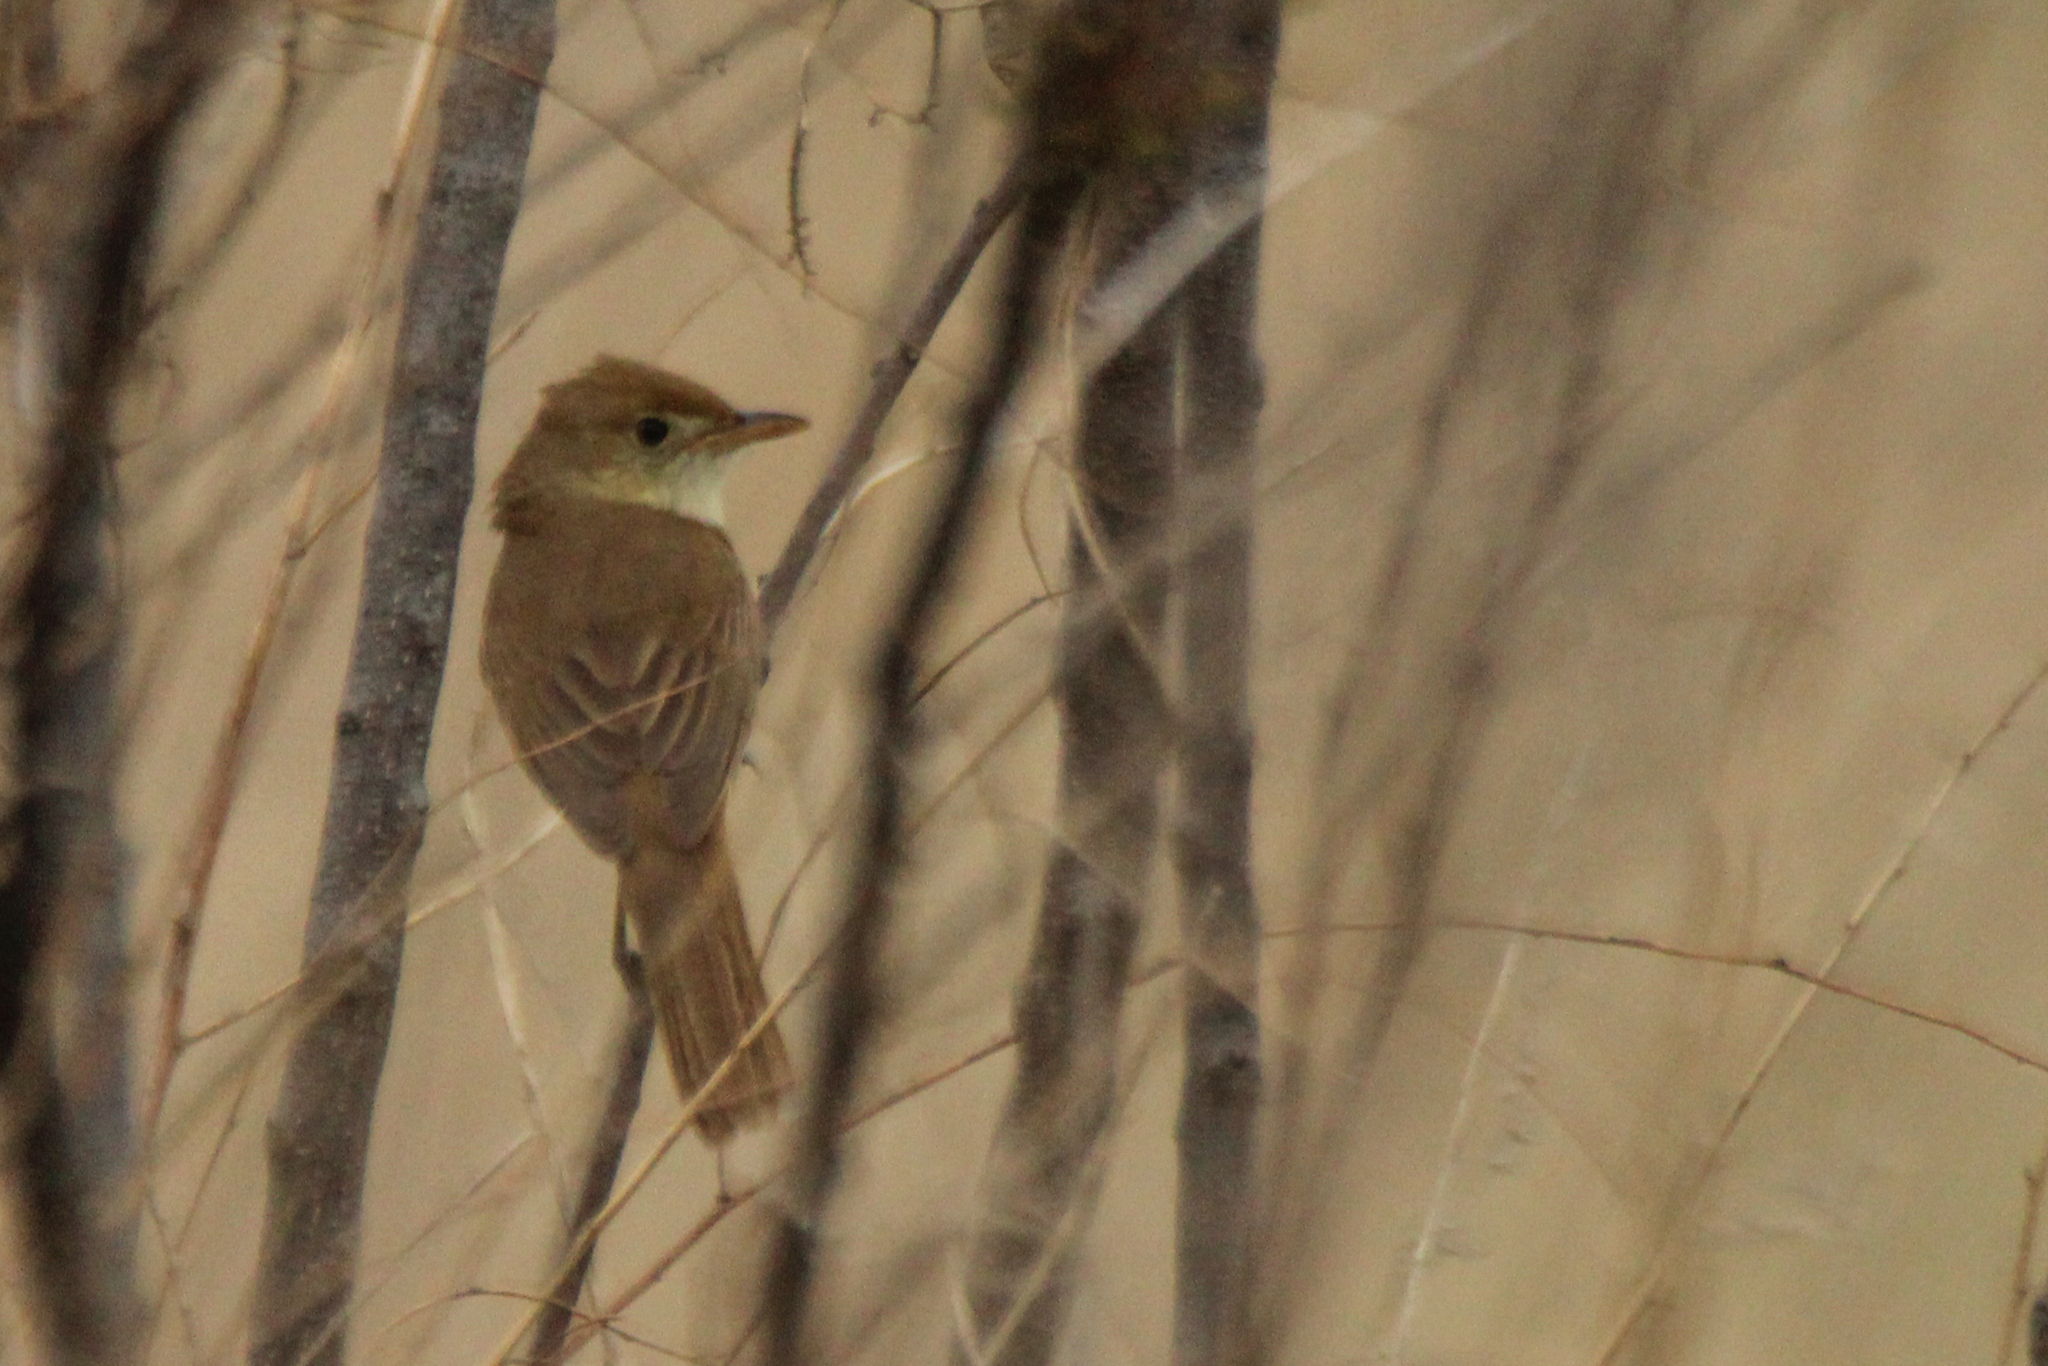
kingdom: Animalia
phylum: Chordata
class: Aves
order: Passeriformes
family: Acrocephalidae
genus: Iduna
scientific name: Iduna aedon
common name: Thick-billed warbler
